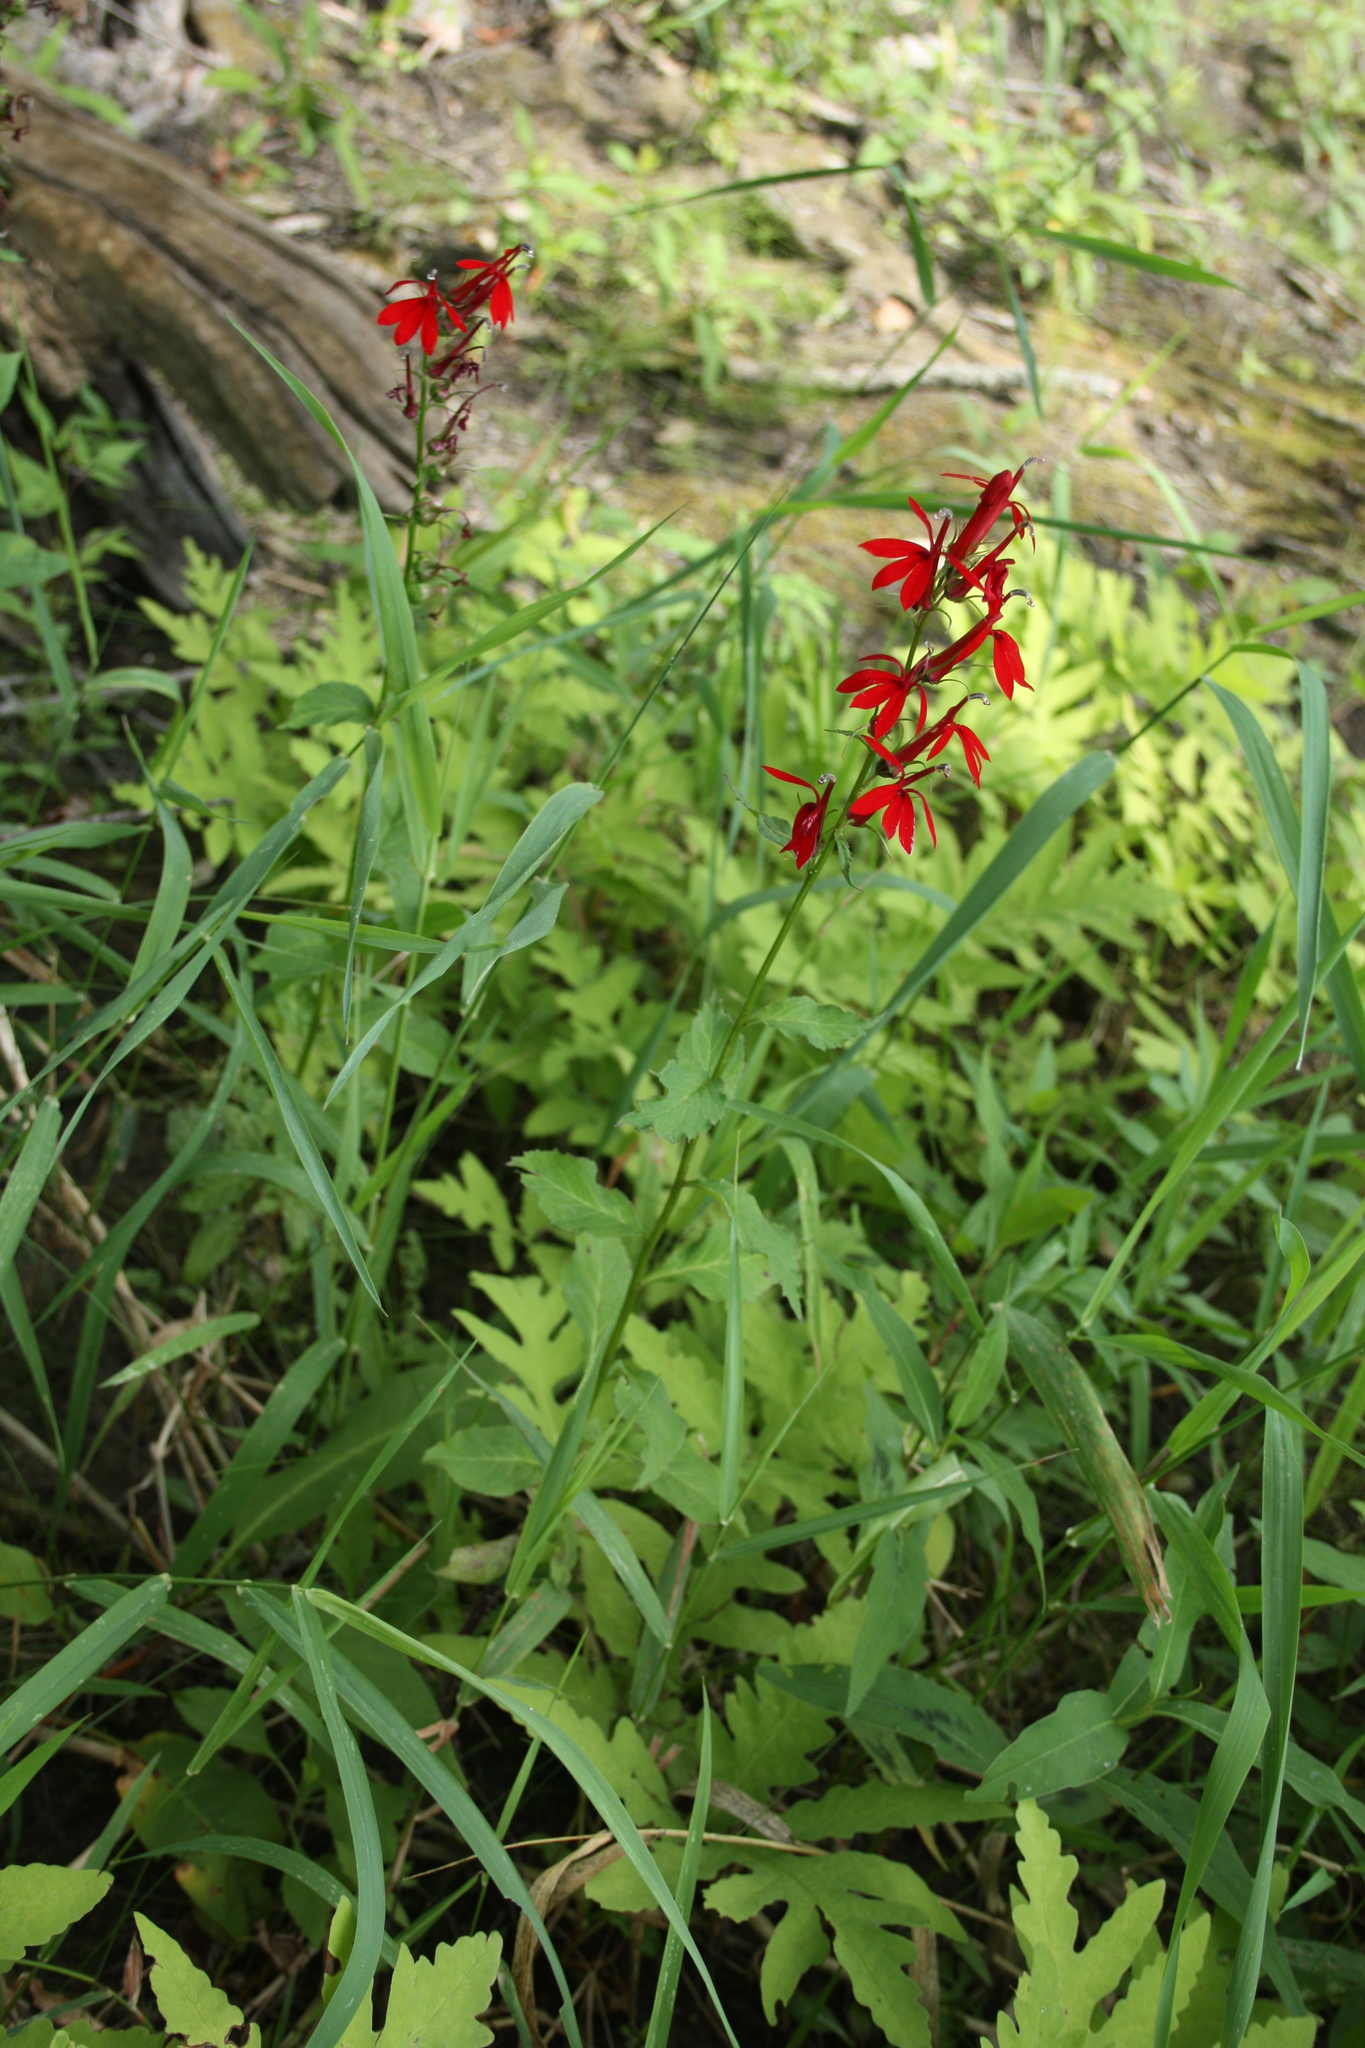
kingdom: Plantae
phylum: Tracheophyta
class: Magnoliopsida
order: Asterales
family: Campanulaceae
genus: Lobelia
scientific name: Lobelia cardinalis
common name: Cardinal flower
